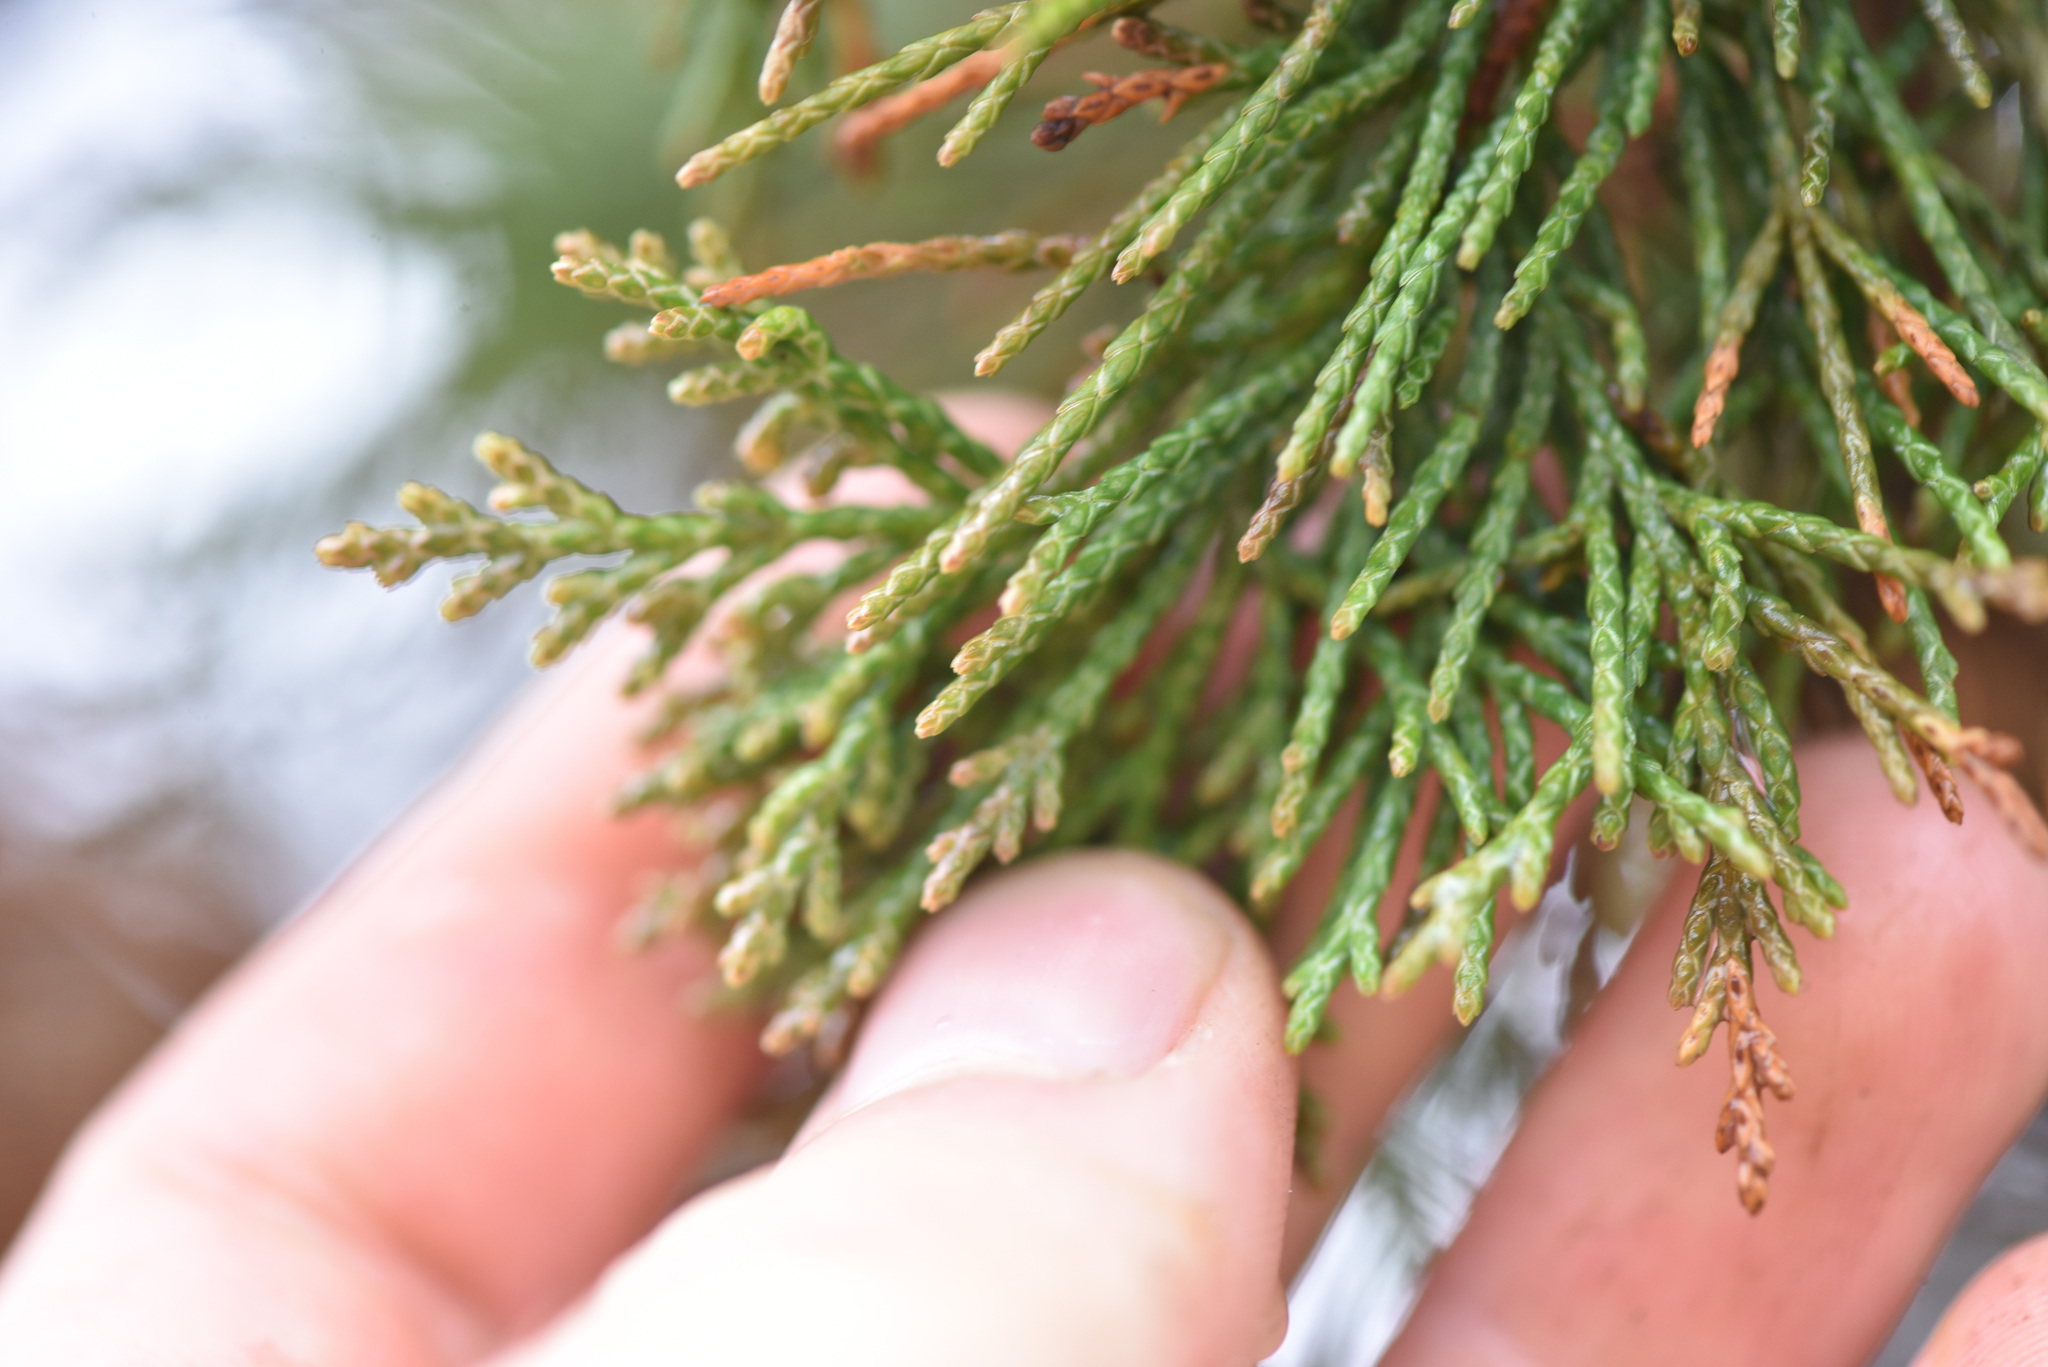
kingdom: Plantae
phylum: Tracheophyta
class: Pinopsida
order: Pinales
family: Cupressaceae
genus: Juniperus
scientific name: Juniperus scopulorum
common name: Rocky mountain juniper
